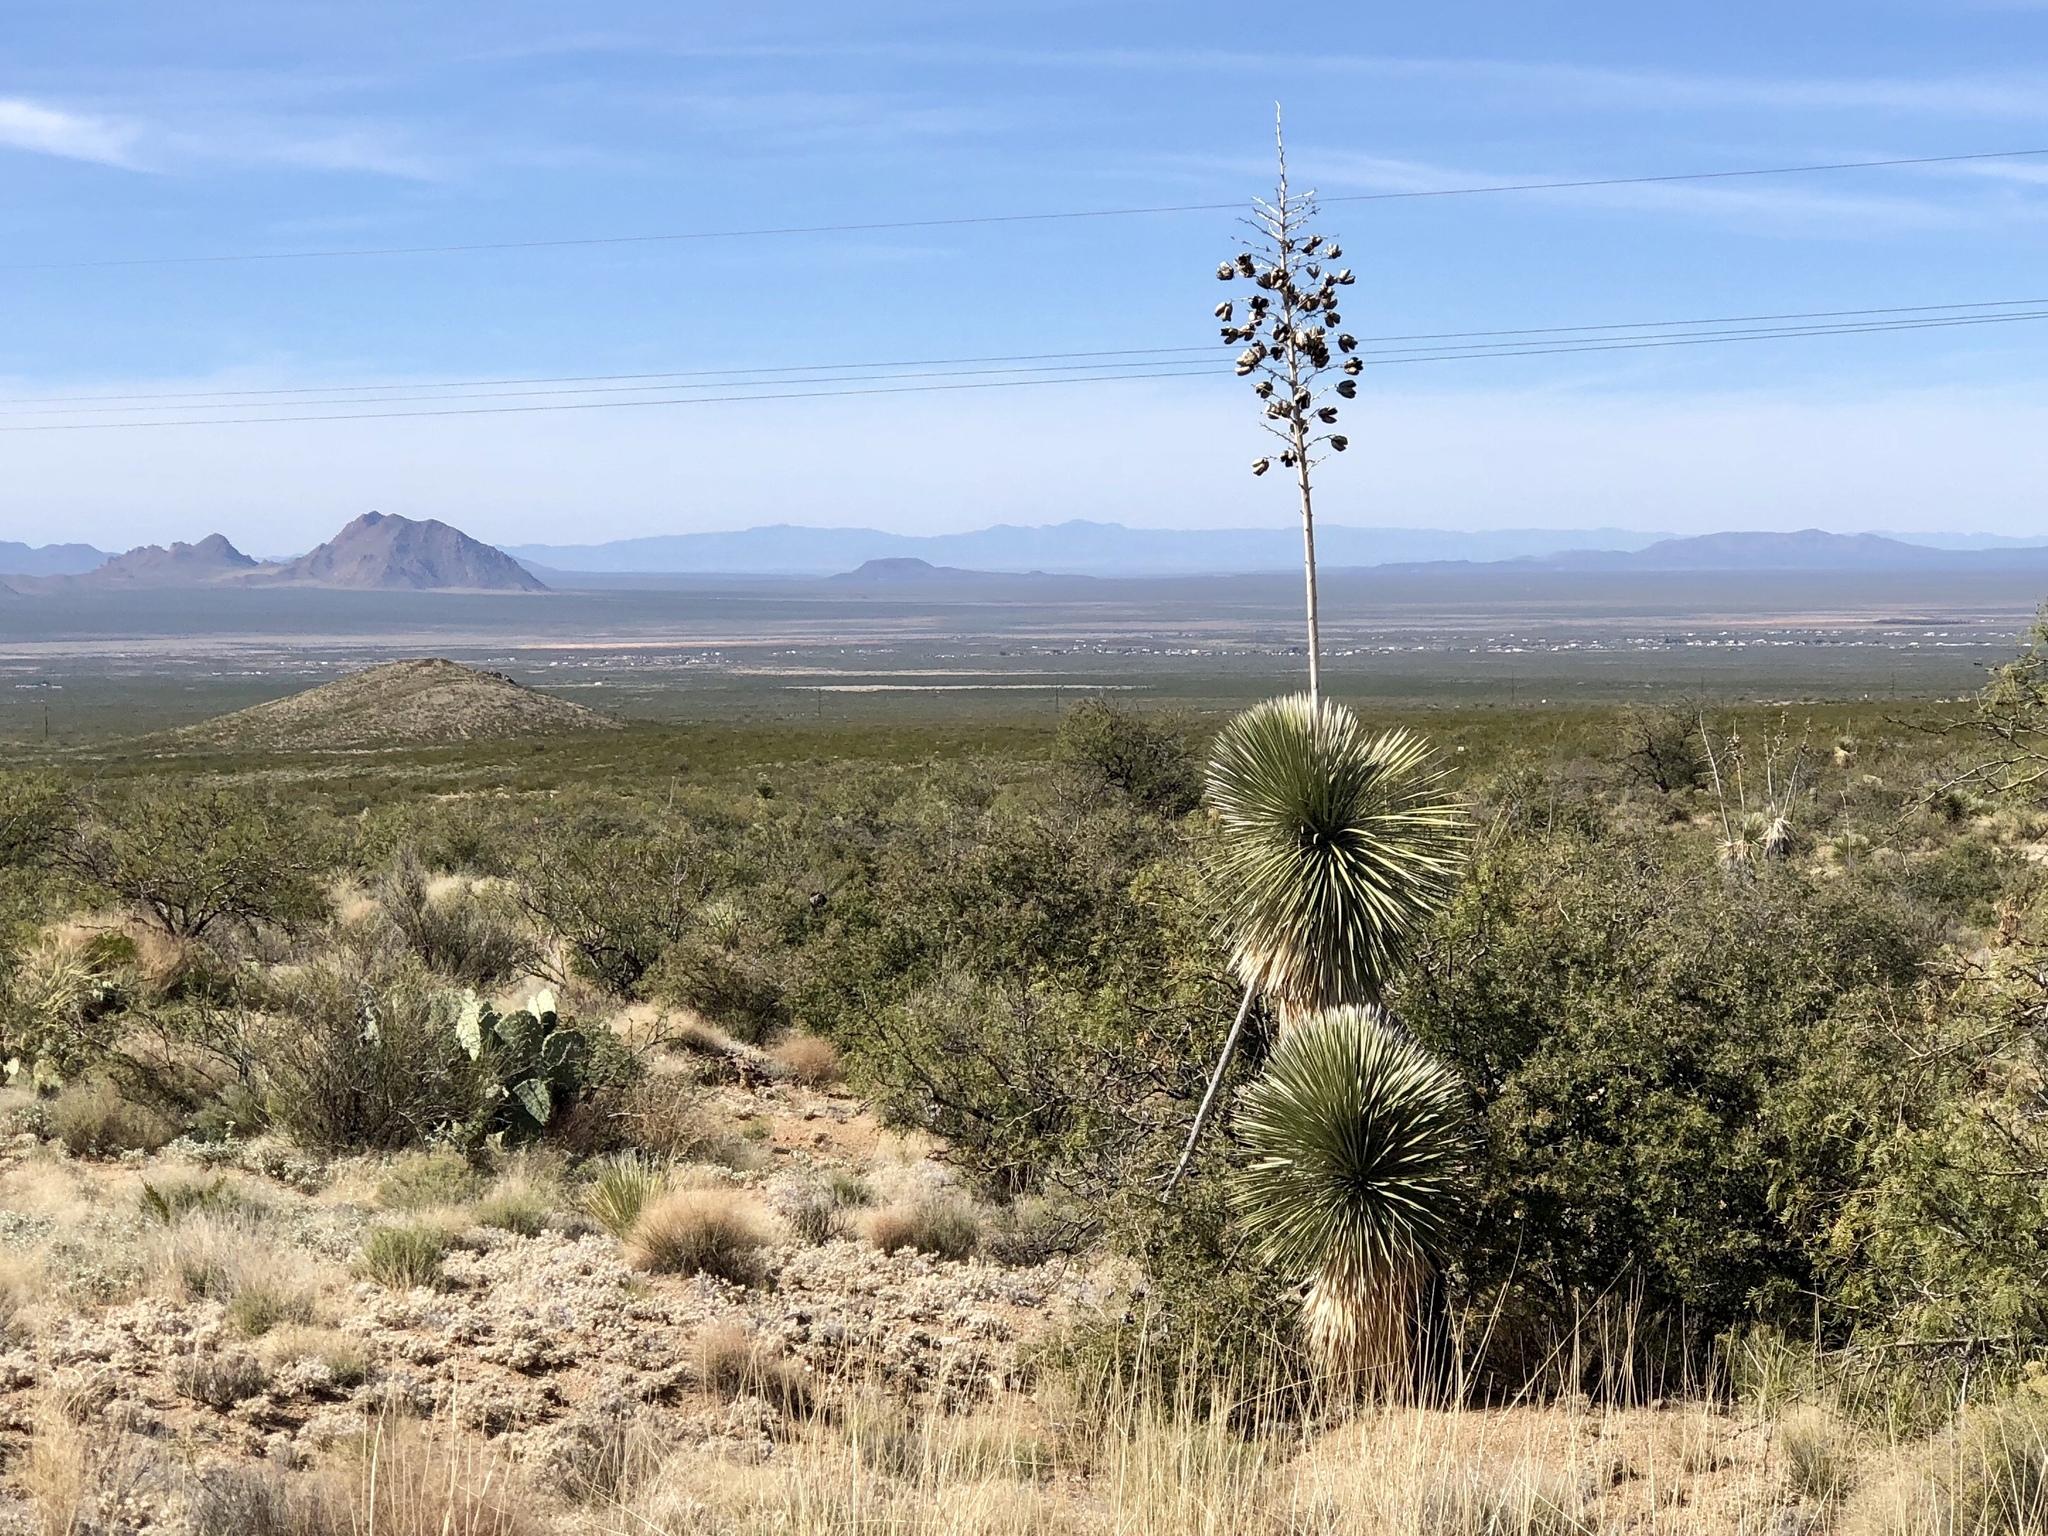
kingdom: Plantae
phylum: Tracheophyta
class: Liliopsida
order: Asparagales
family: Asparagaceae
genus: Yucca
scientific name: Yucca elata
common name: Palmella
